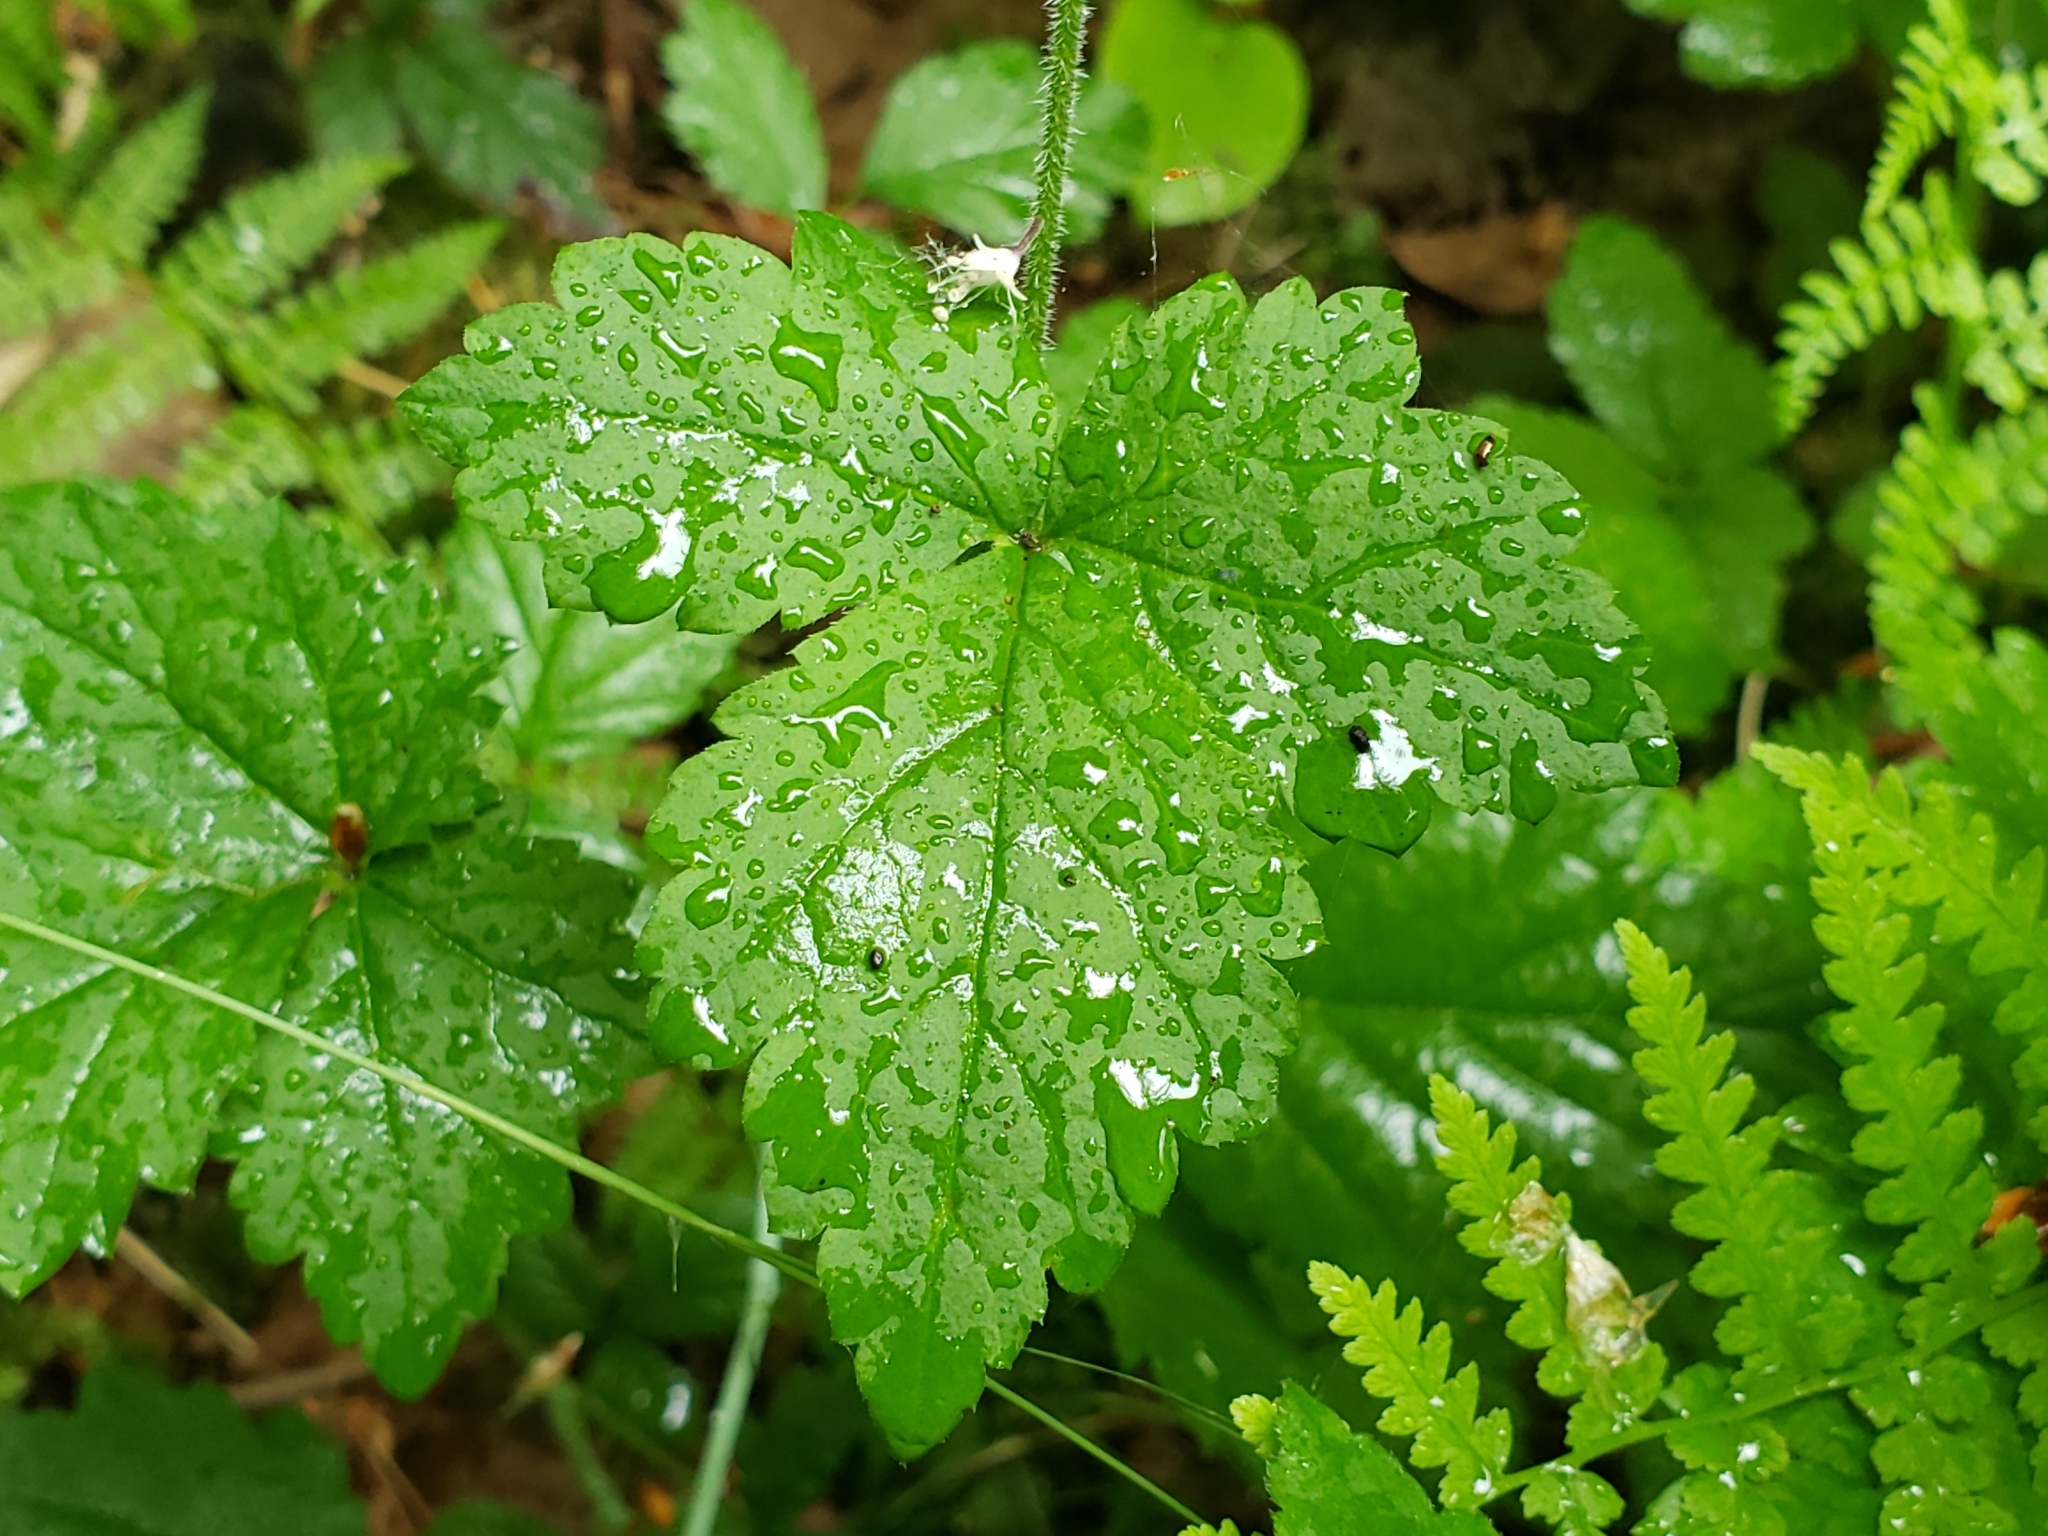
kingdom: Plantae
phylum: Tracheophyta
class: Magnoliopsida
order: Saxifragales
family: Saxifragaceae
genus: Tiarella
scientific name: Tiarella trifoliata
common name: Sugar-scoop
